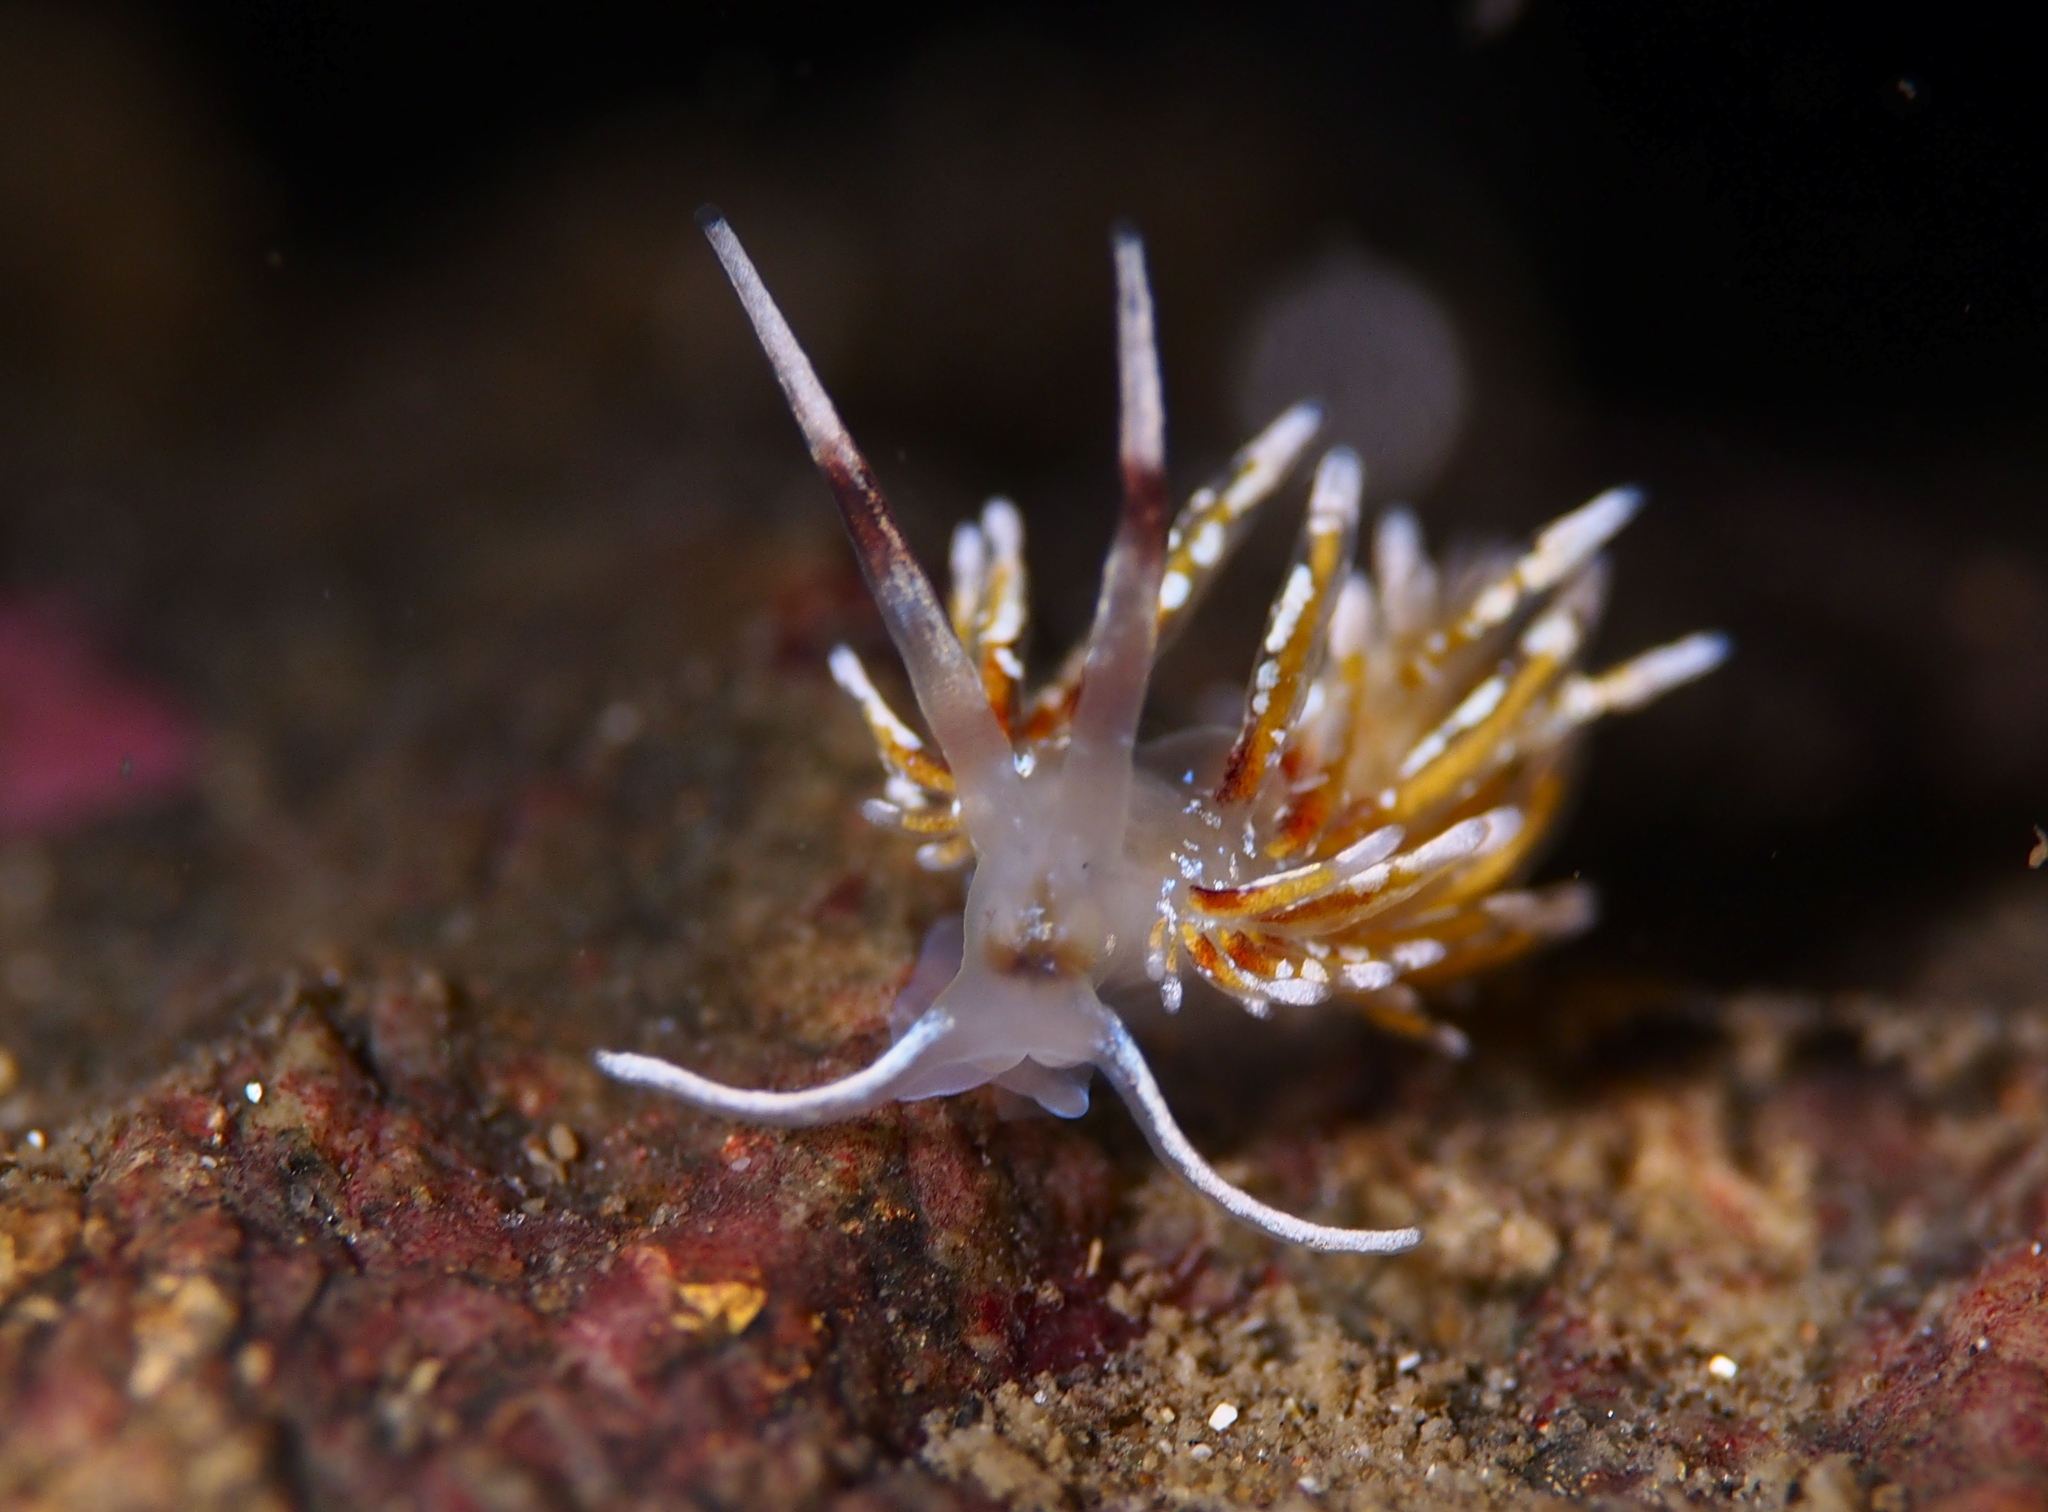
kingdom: Animalia
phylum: Mollusca
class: Gastropoda
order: Nudibranchia
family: Trinchesiidae
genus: Rubramoena
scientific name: Rubramoena rubescens
